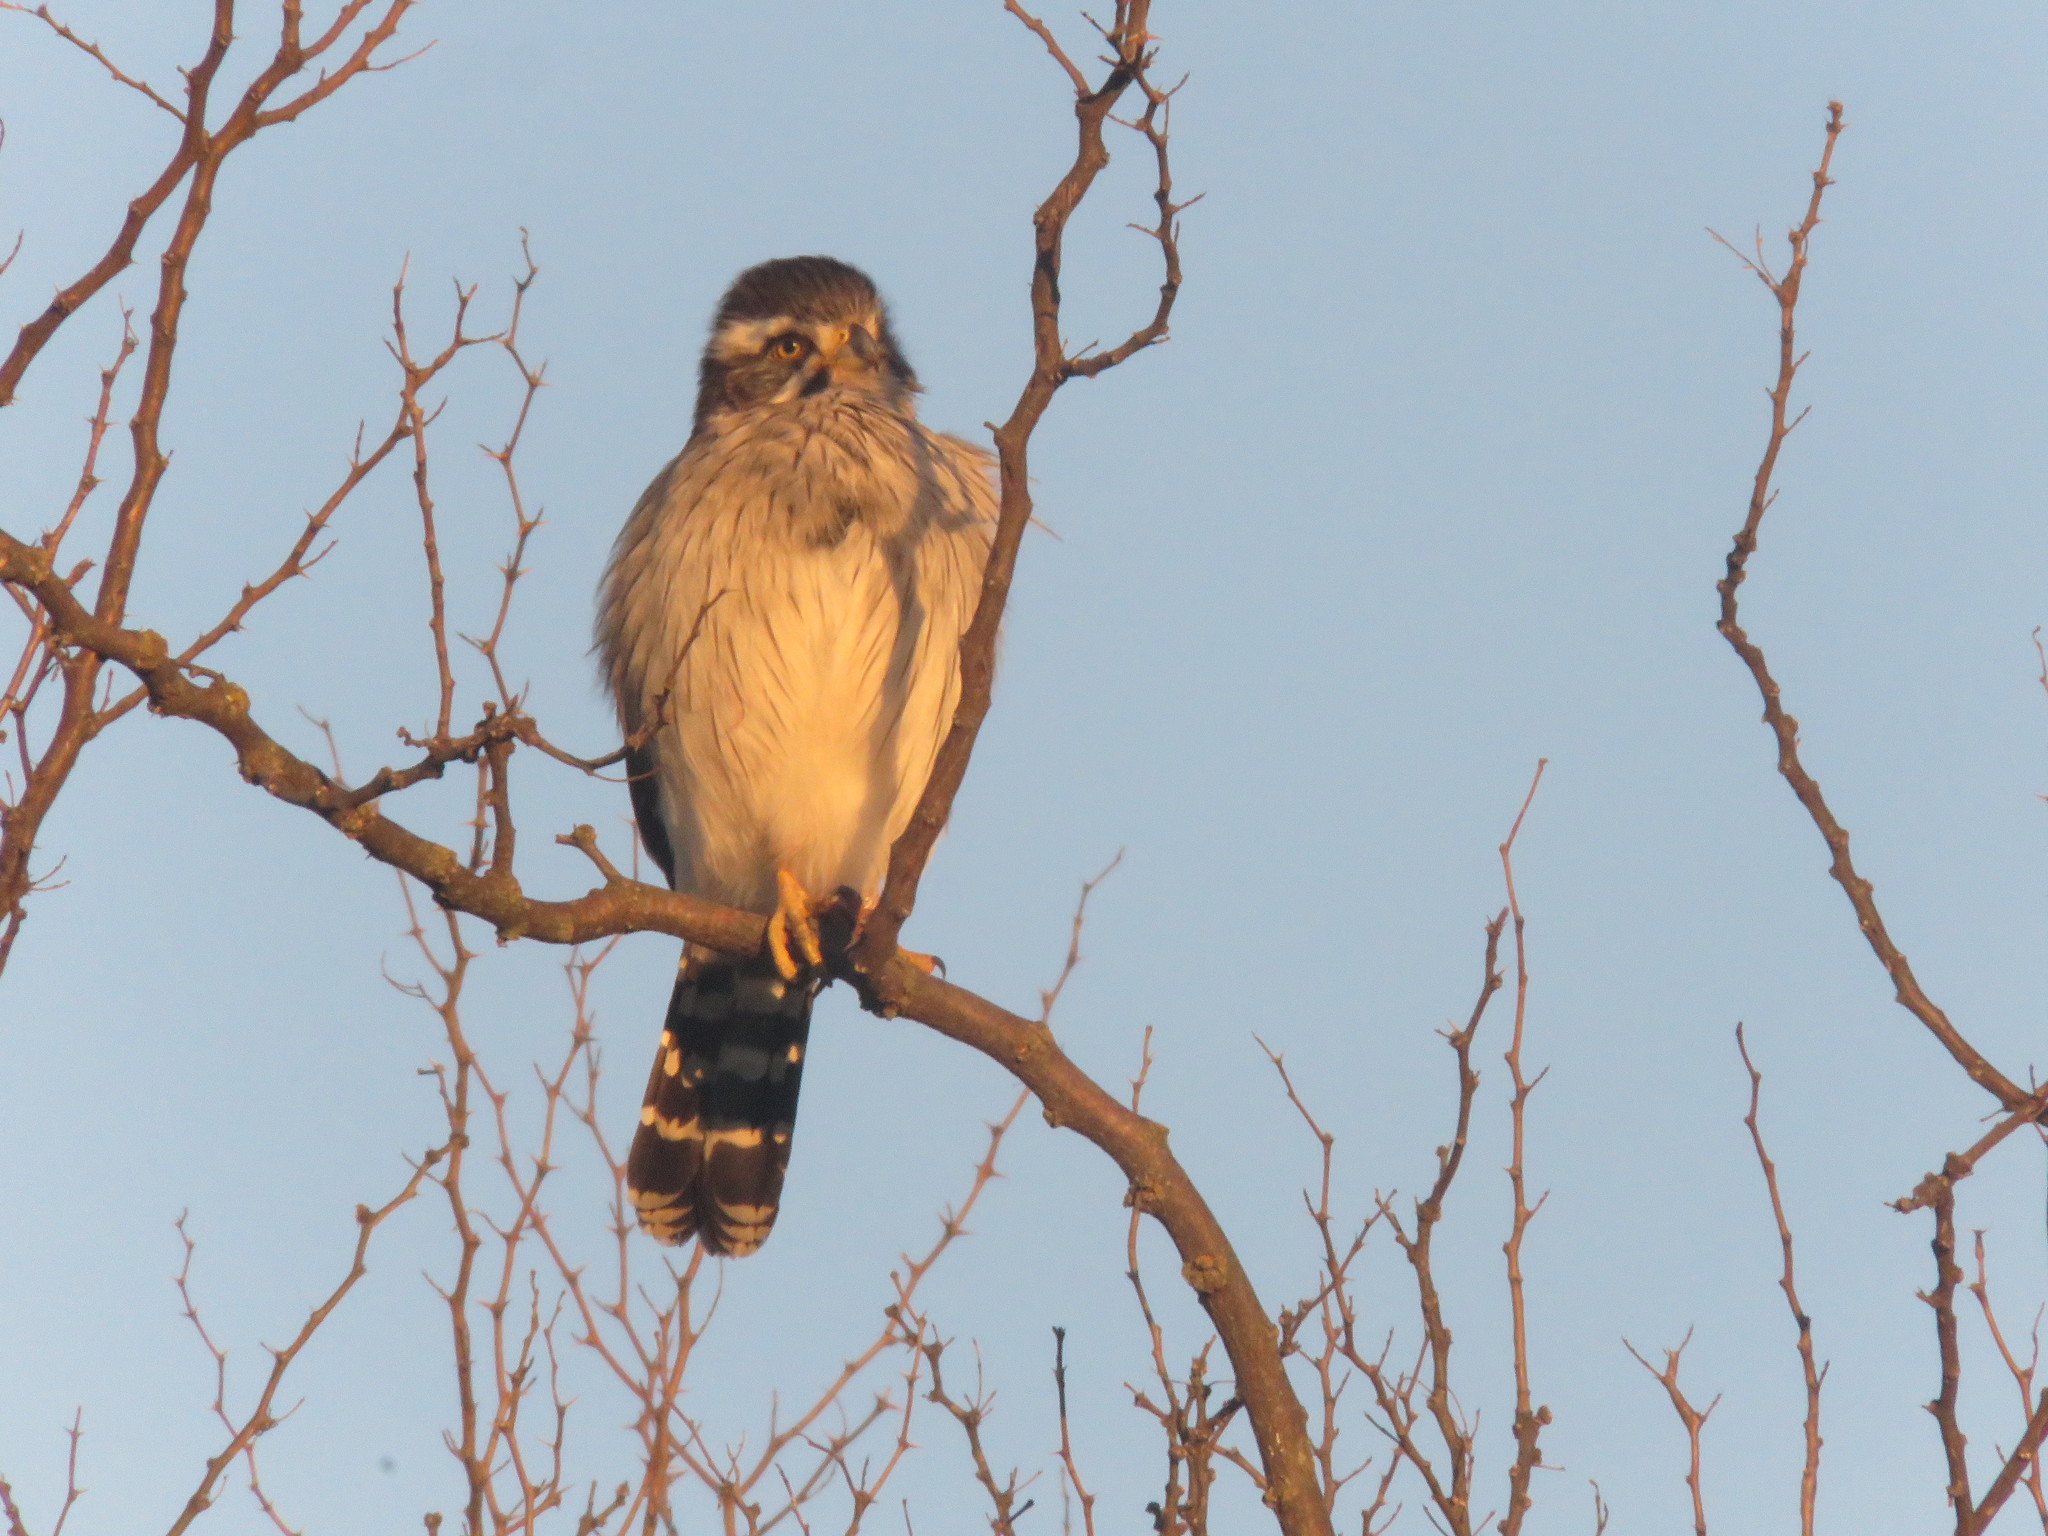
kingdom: Animalia
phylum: Chordata
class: Aves
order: Falconiformes
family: Falconidae
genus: Spiziapteryx
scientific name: Spiziapteryx circumcincta
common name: Spot-winged falconet
